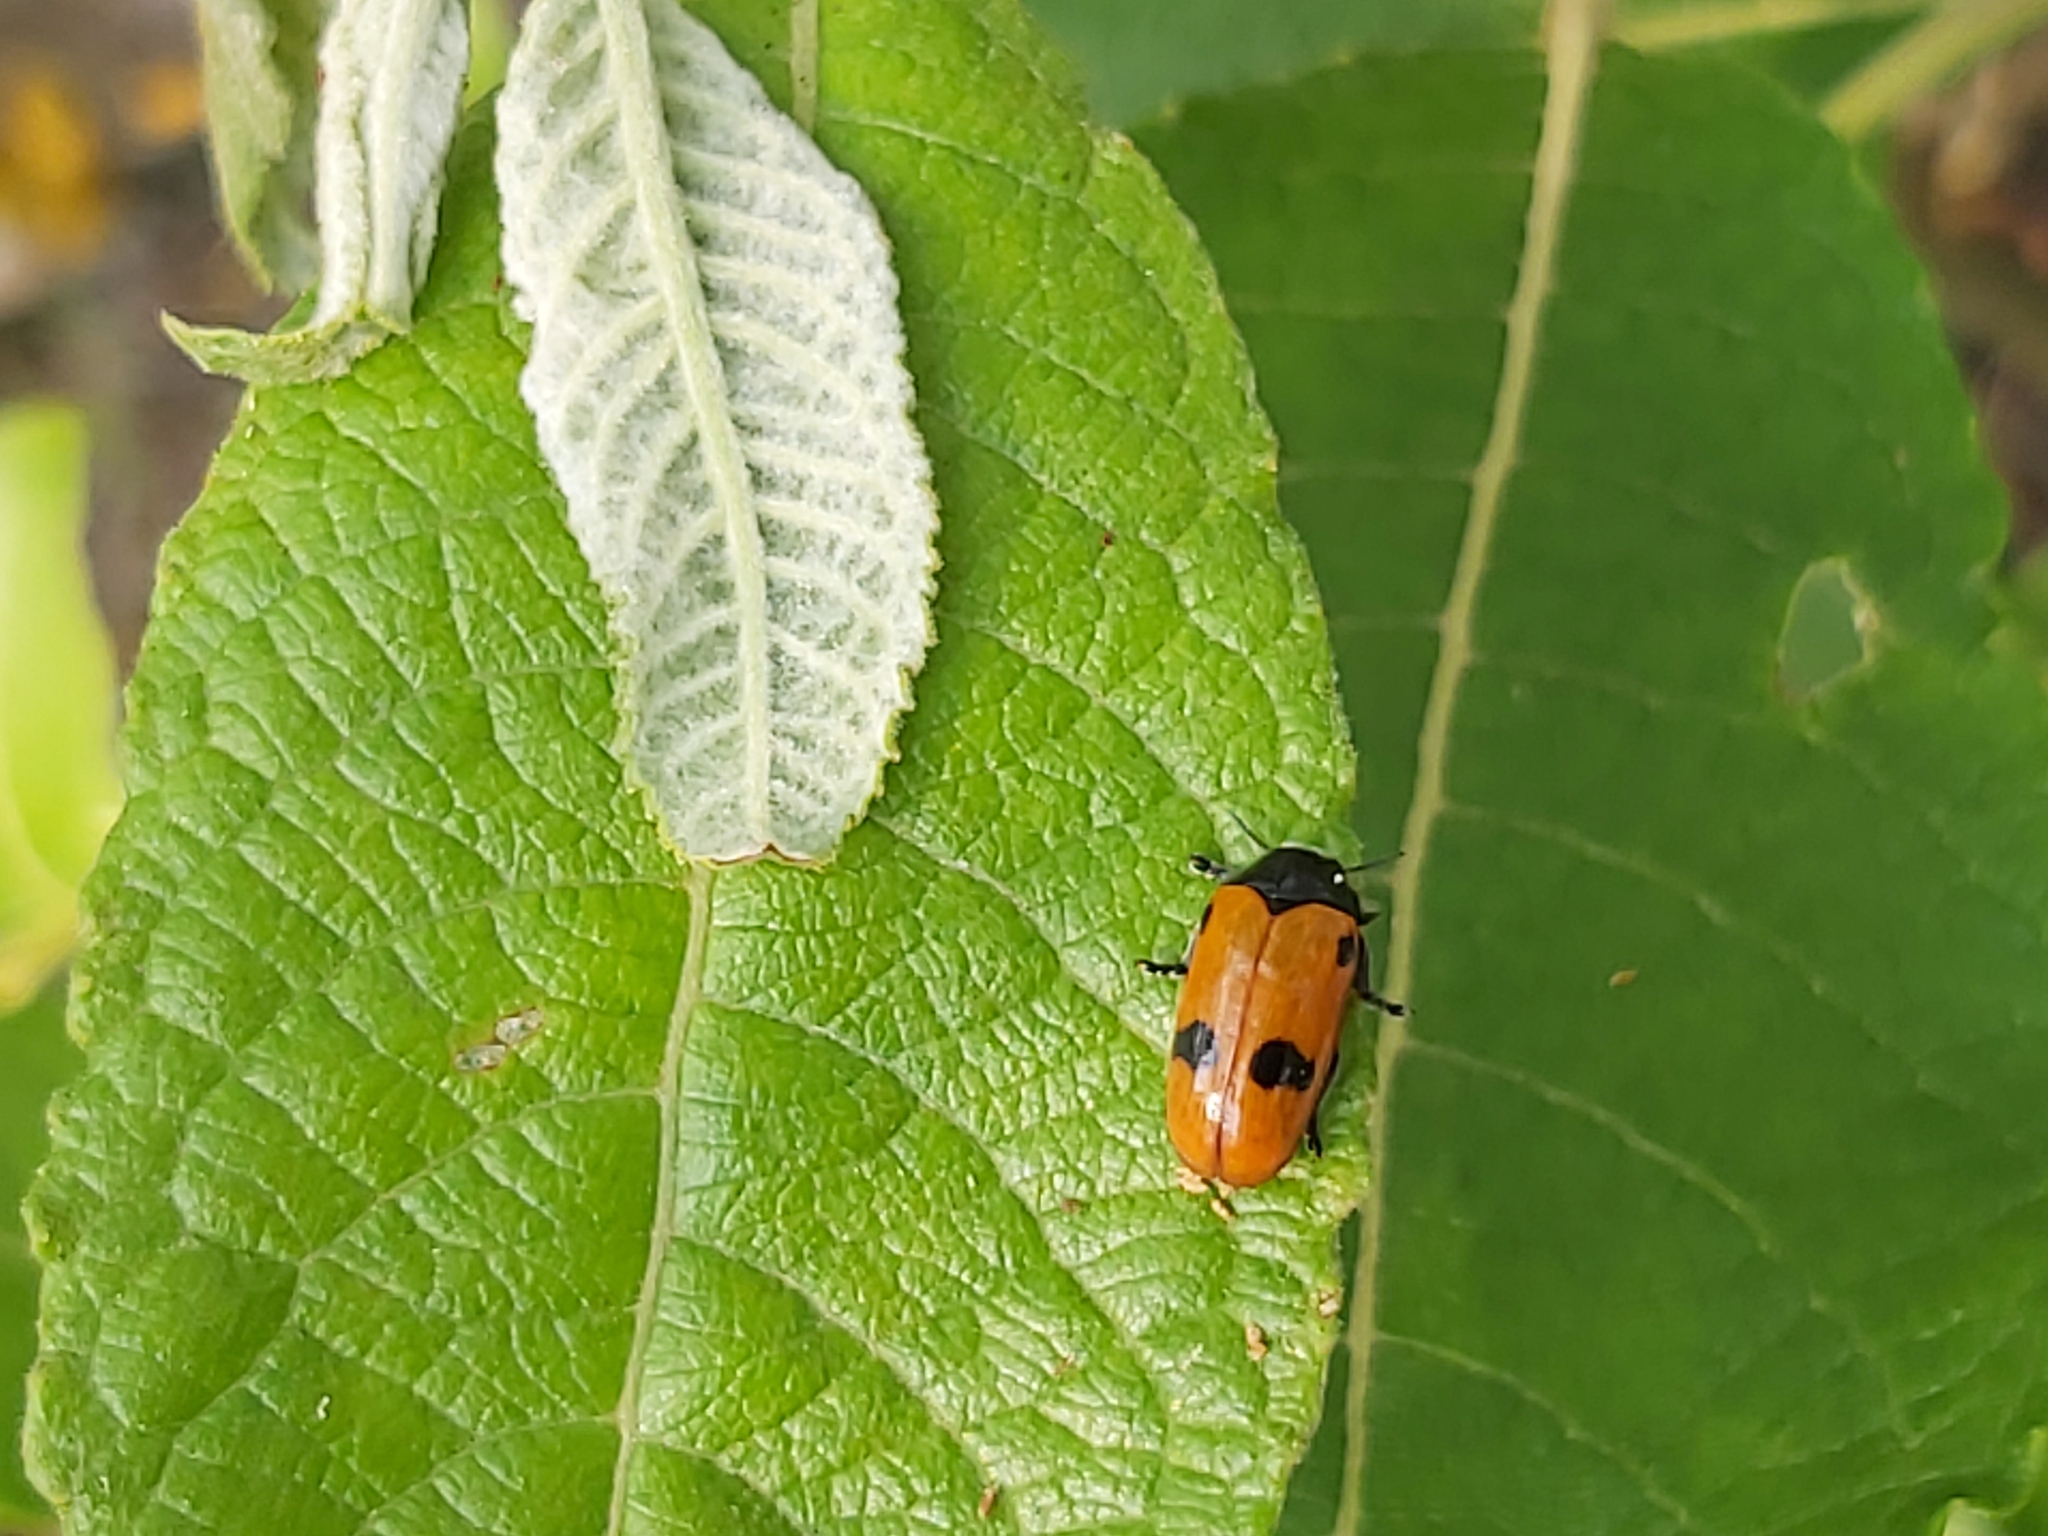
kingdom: Animalia
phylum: Arthropoda
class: Insecta
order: Coleoptera
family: Chrysomelidae
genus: Clytra
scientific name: Clytra quadripunctata
